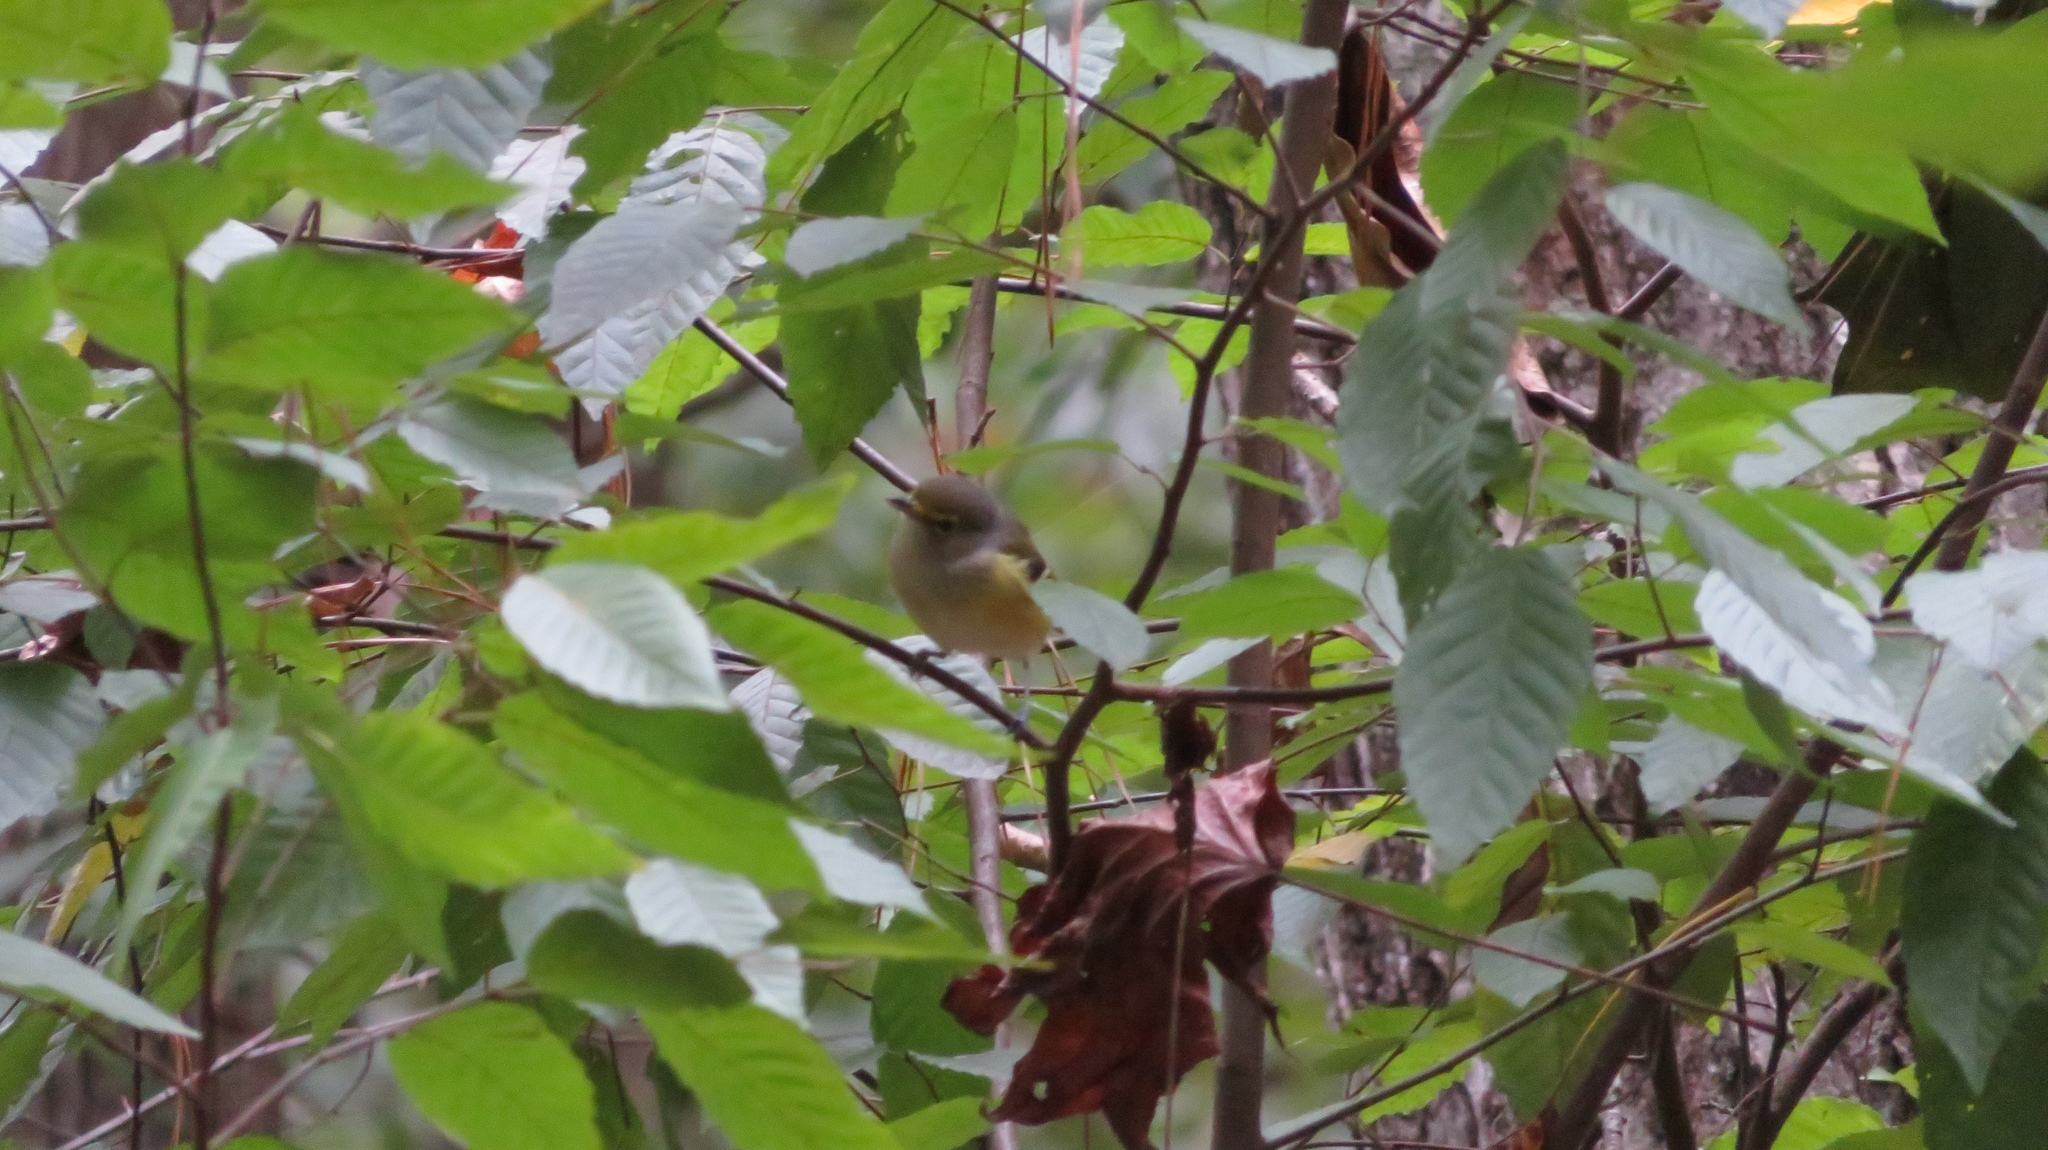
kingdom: Animalia
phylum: Chordata
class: Aves
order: Passeriformes
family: Vireonidae
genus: Vireo
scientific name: Vireo griseus
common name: White-eyed vireo
